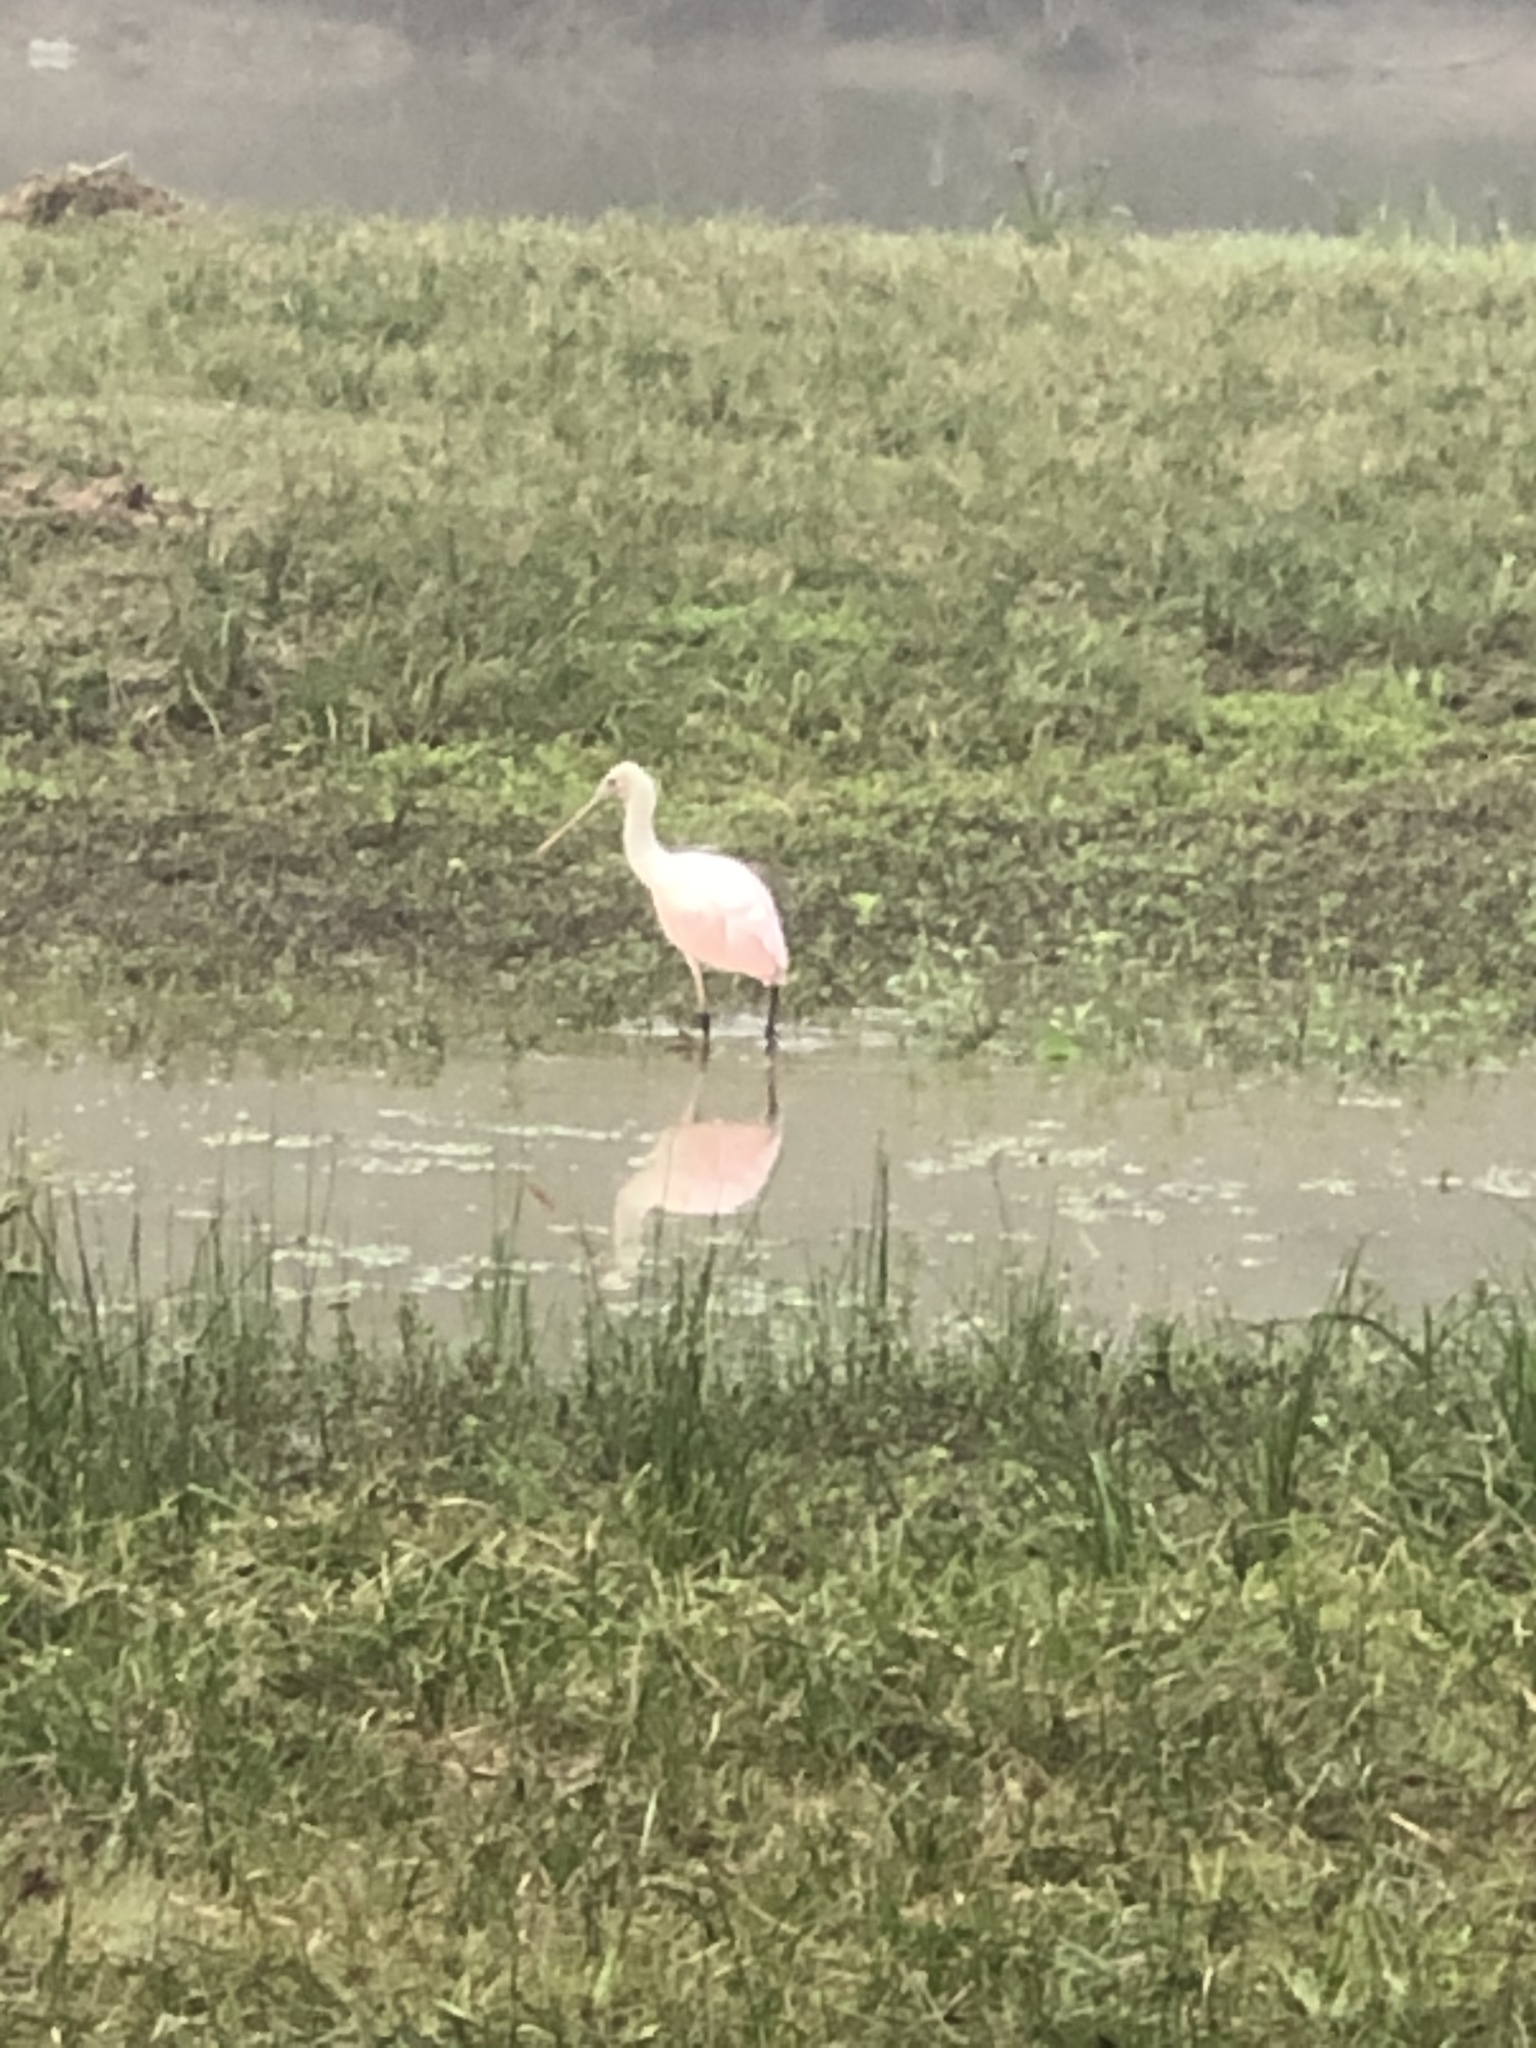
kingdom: Animalia
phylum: Chordata
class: Aves
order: Pelecaniformes
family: Threskiornithidae
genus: Platalea
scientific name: Platalea ajaja
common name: Roseate spoonbill
